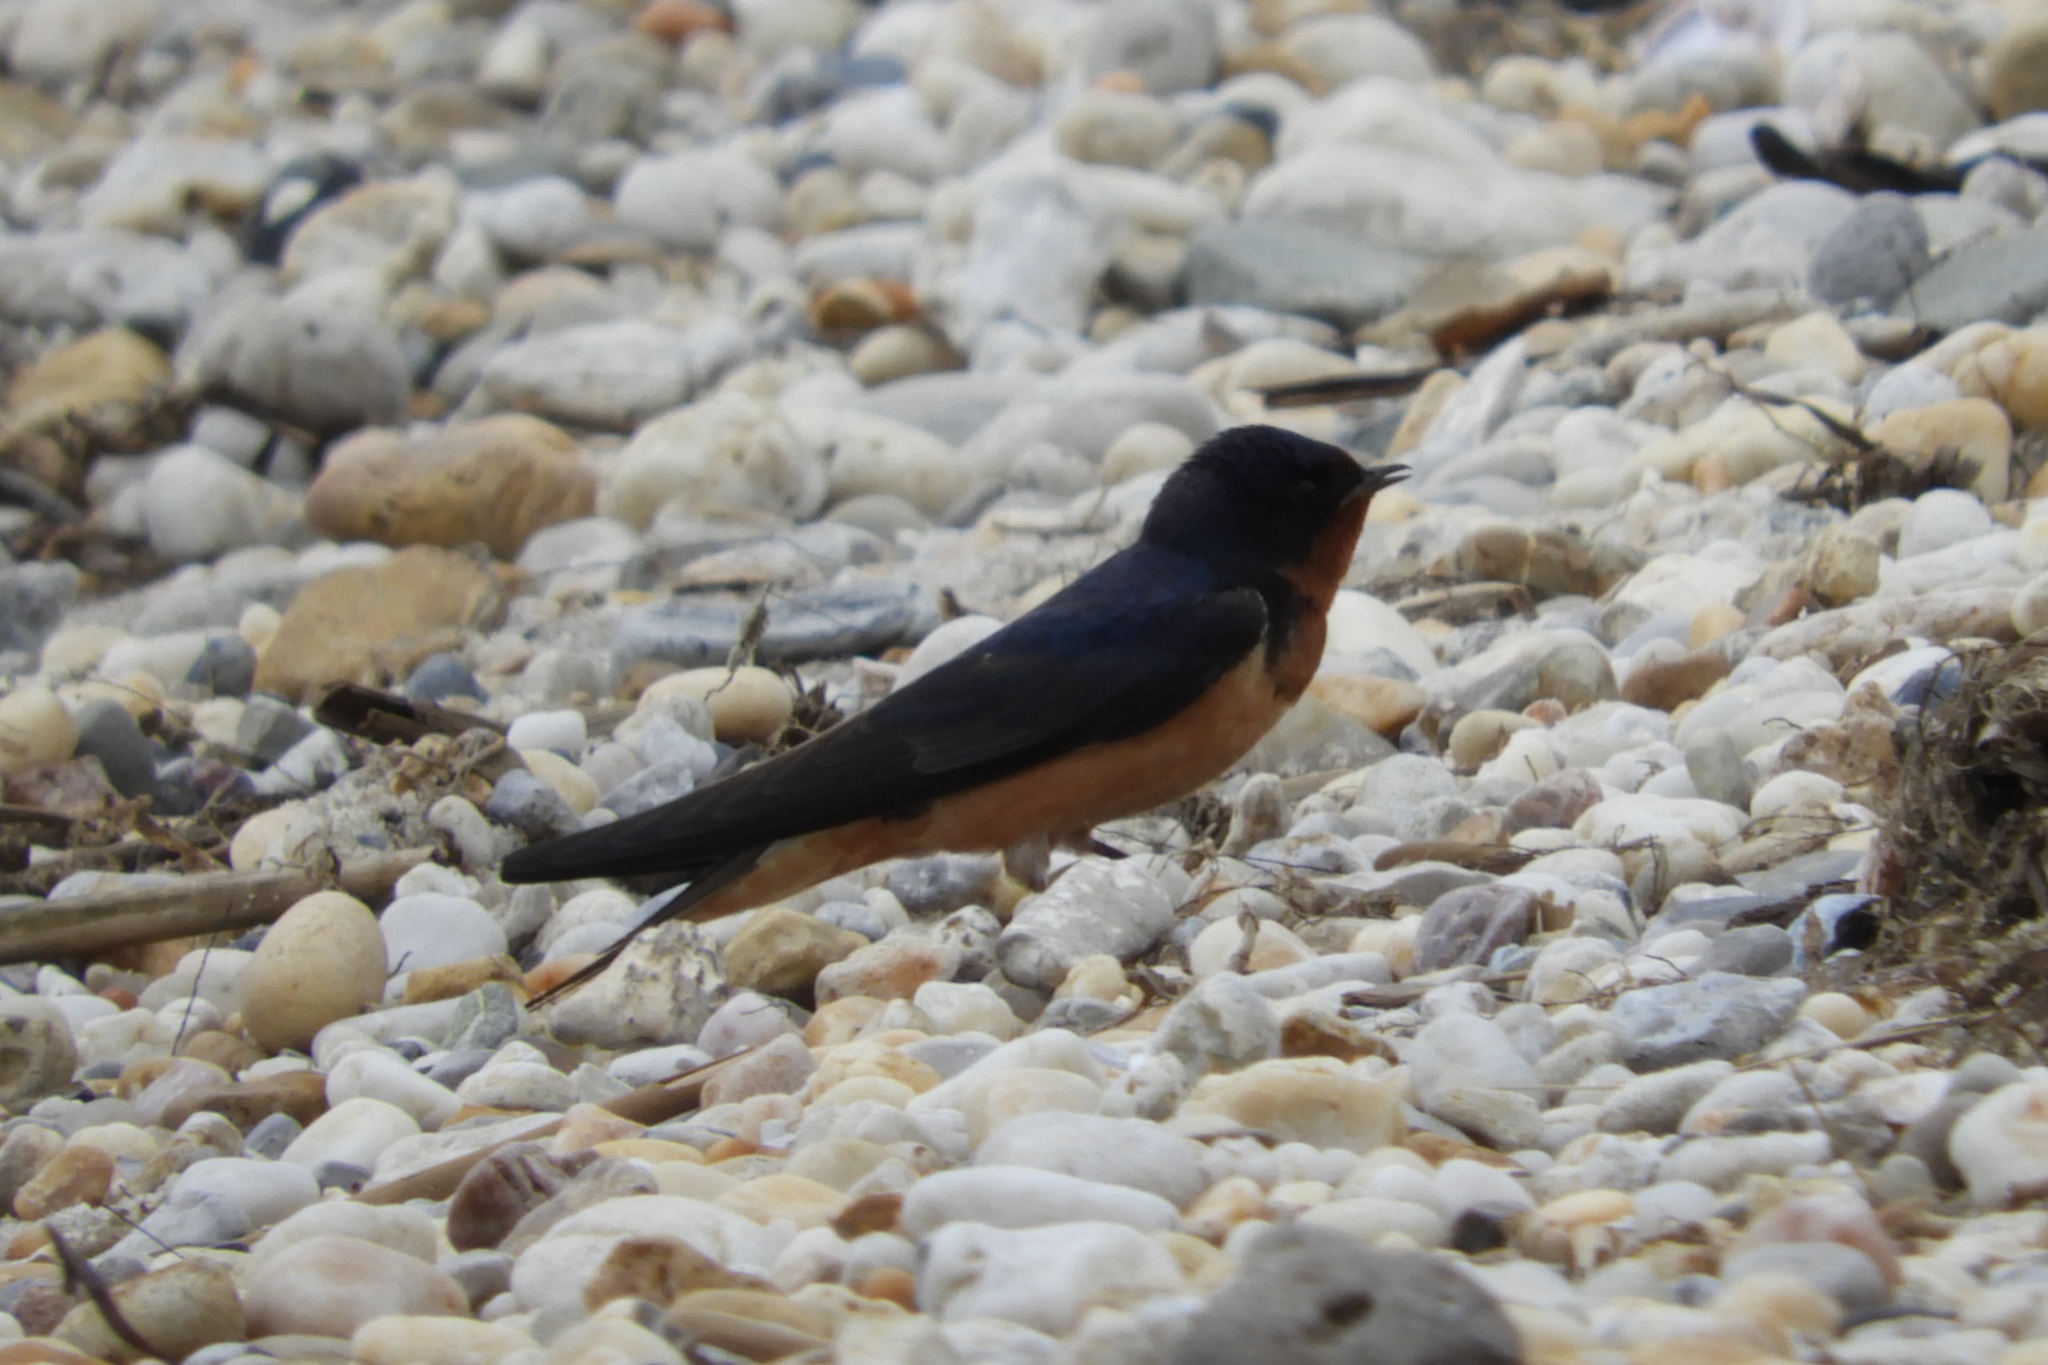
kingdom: Animalia
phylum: Chordata
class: Aves
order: Passeriformes
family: Hirundinidae
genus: Hirundo
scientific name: Hirundo rustica
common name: Barn swallow
